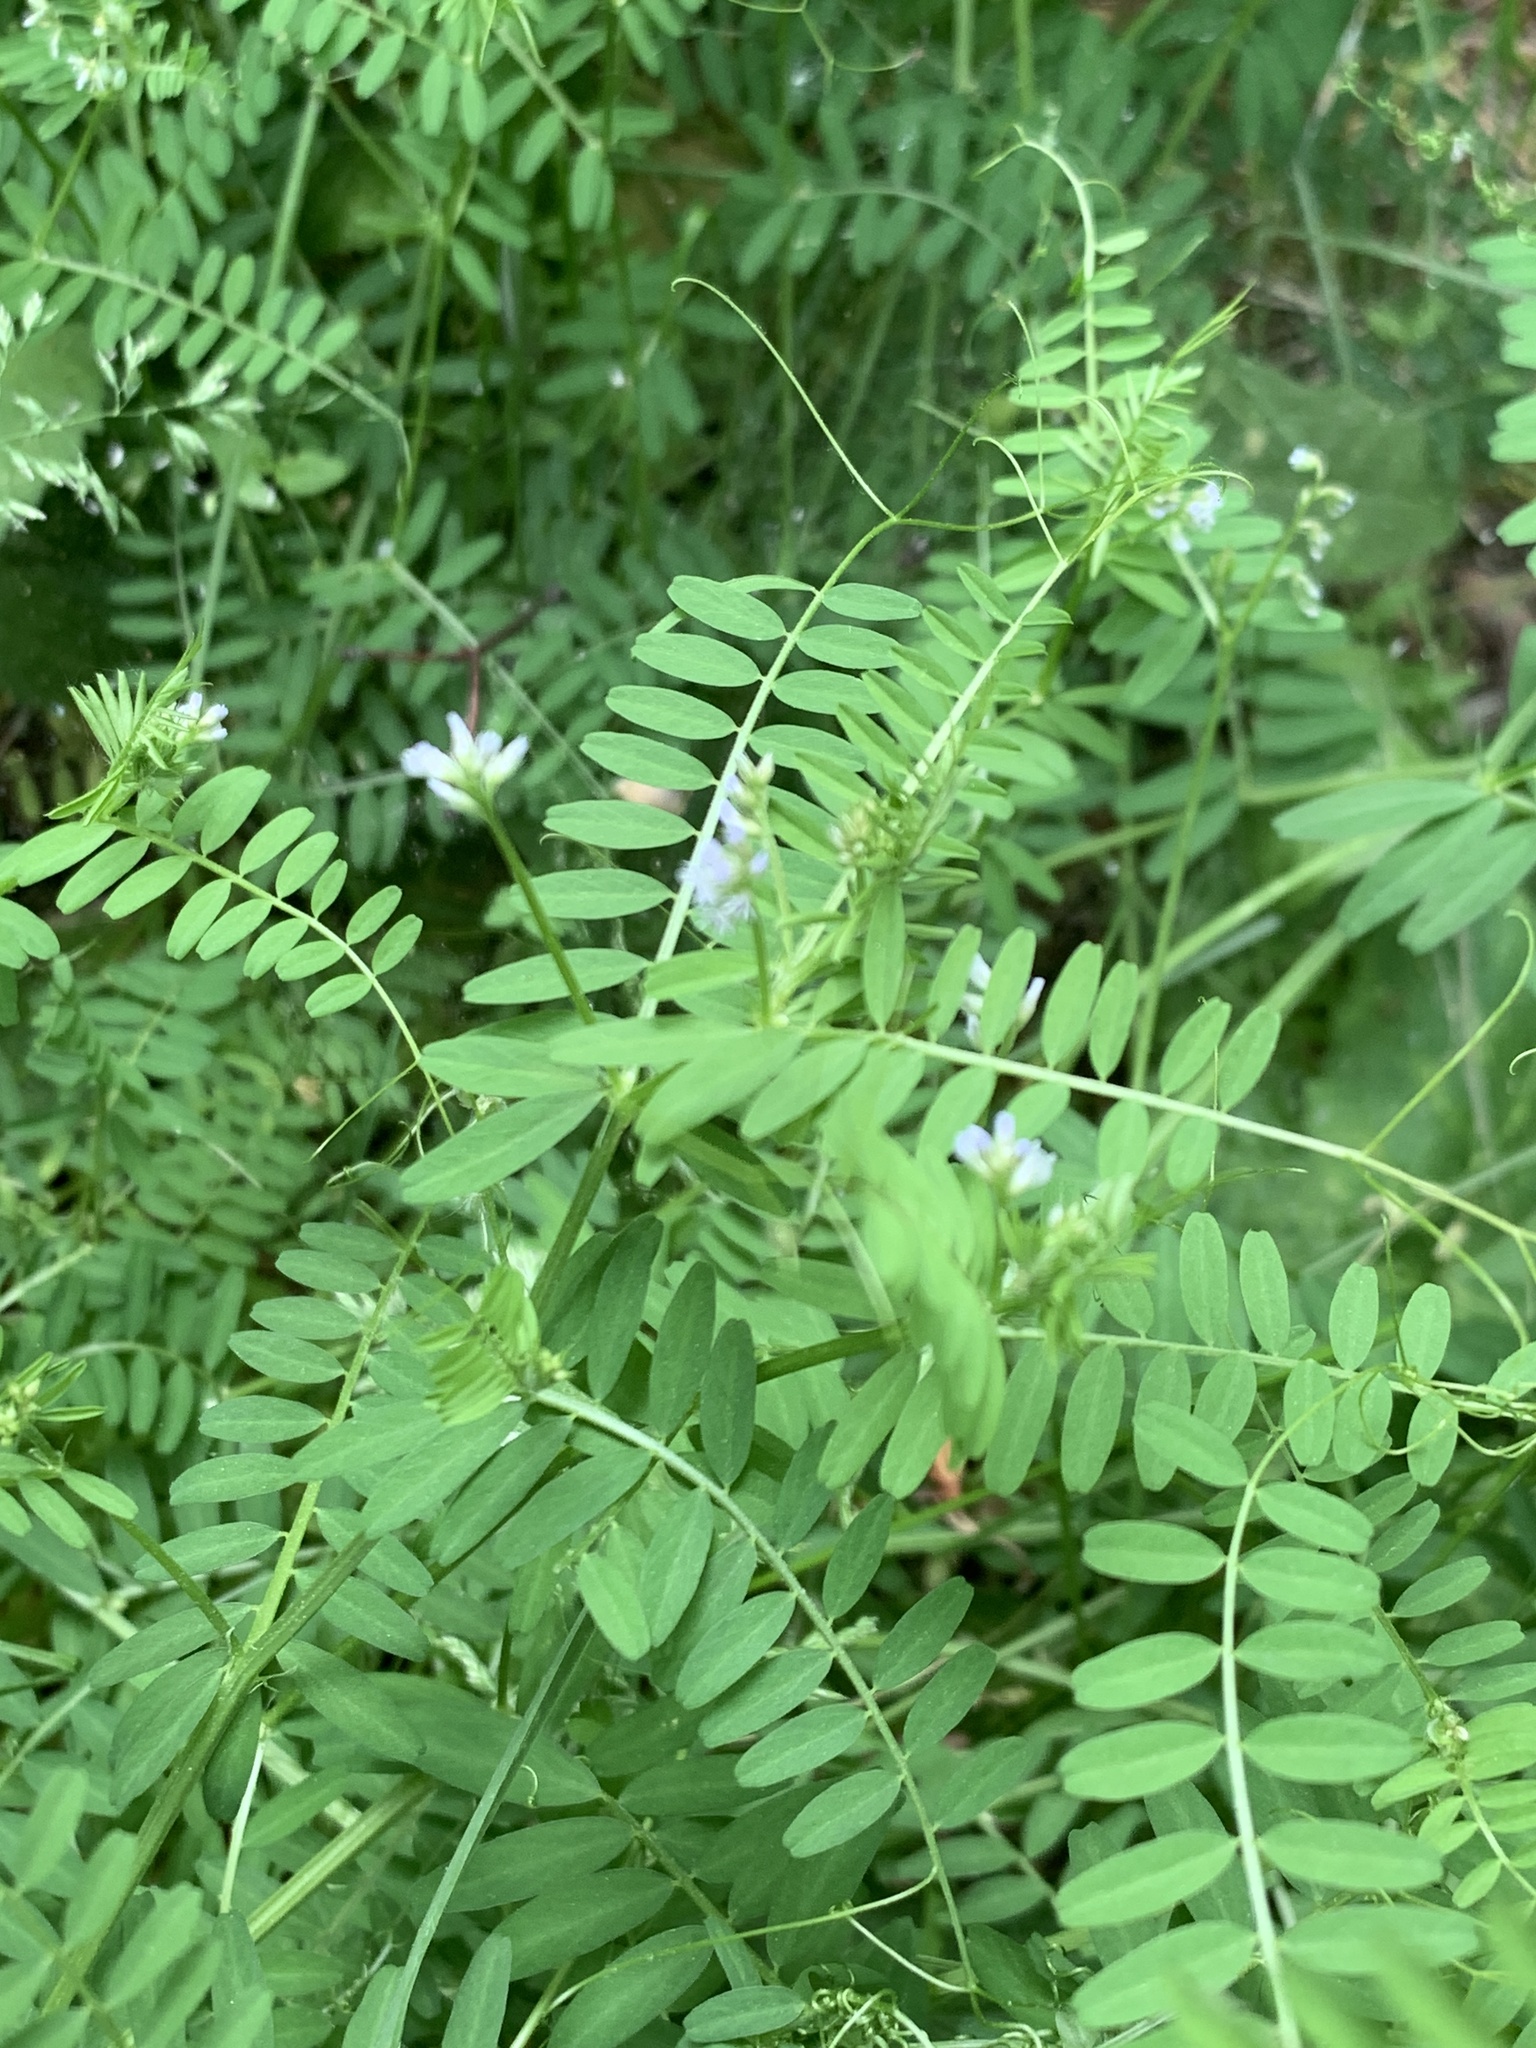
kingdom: Plantae
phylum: Tracheophyta
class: Magnoliopsida
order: Fabales
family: Fabaceae
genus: Vicia
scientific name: Vicia hirsuta
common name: Tiny vetch
